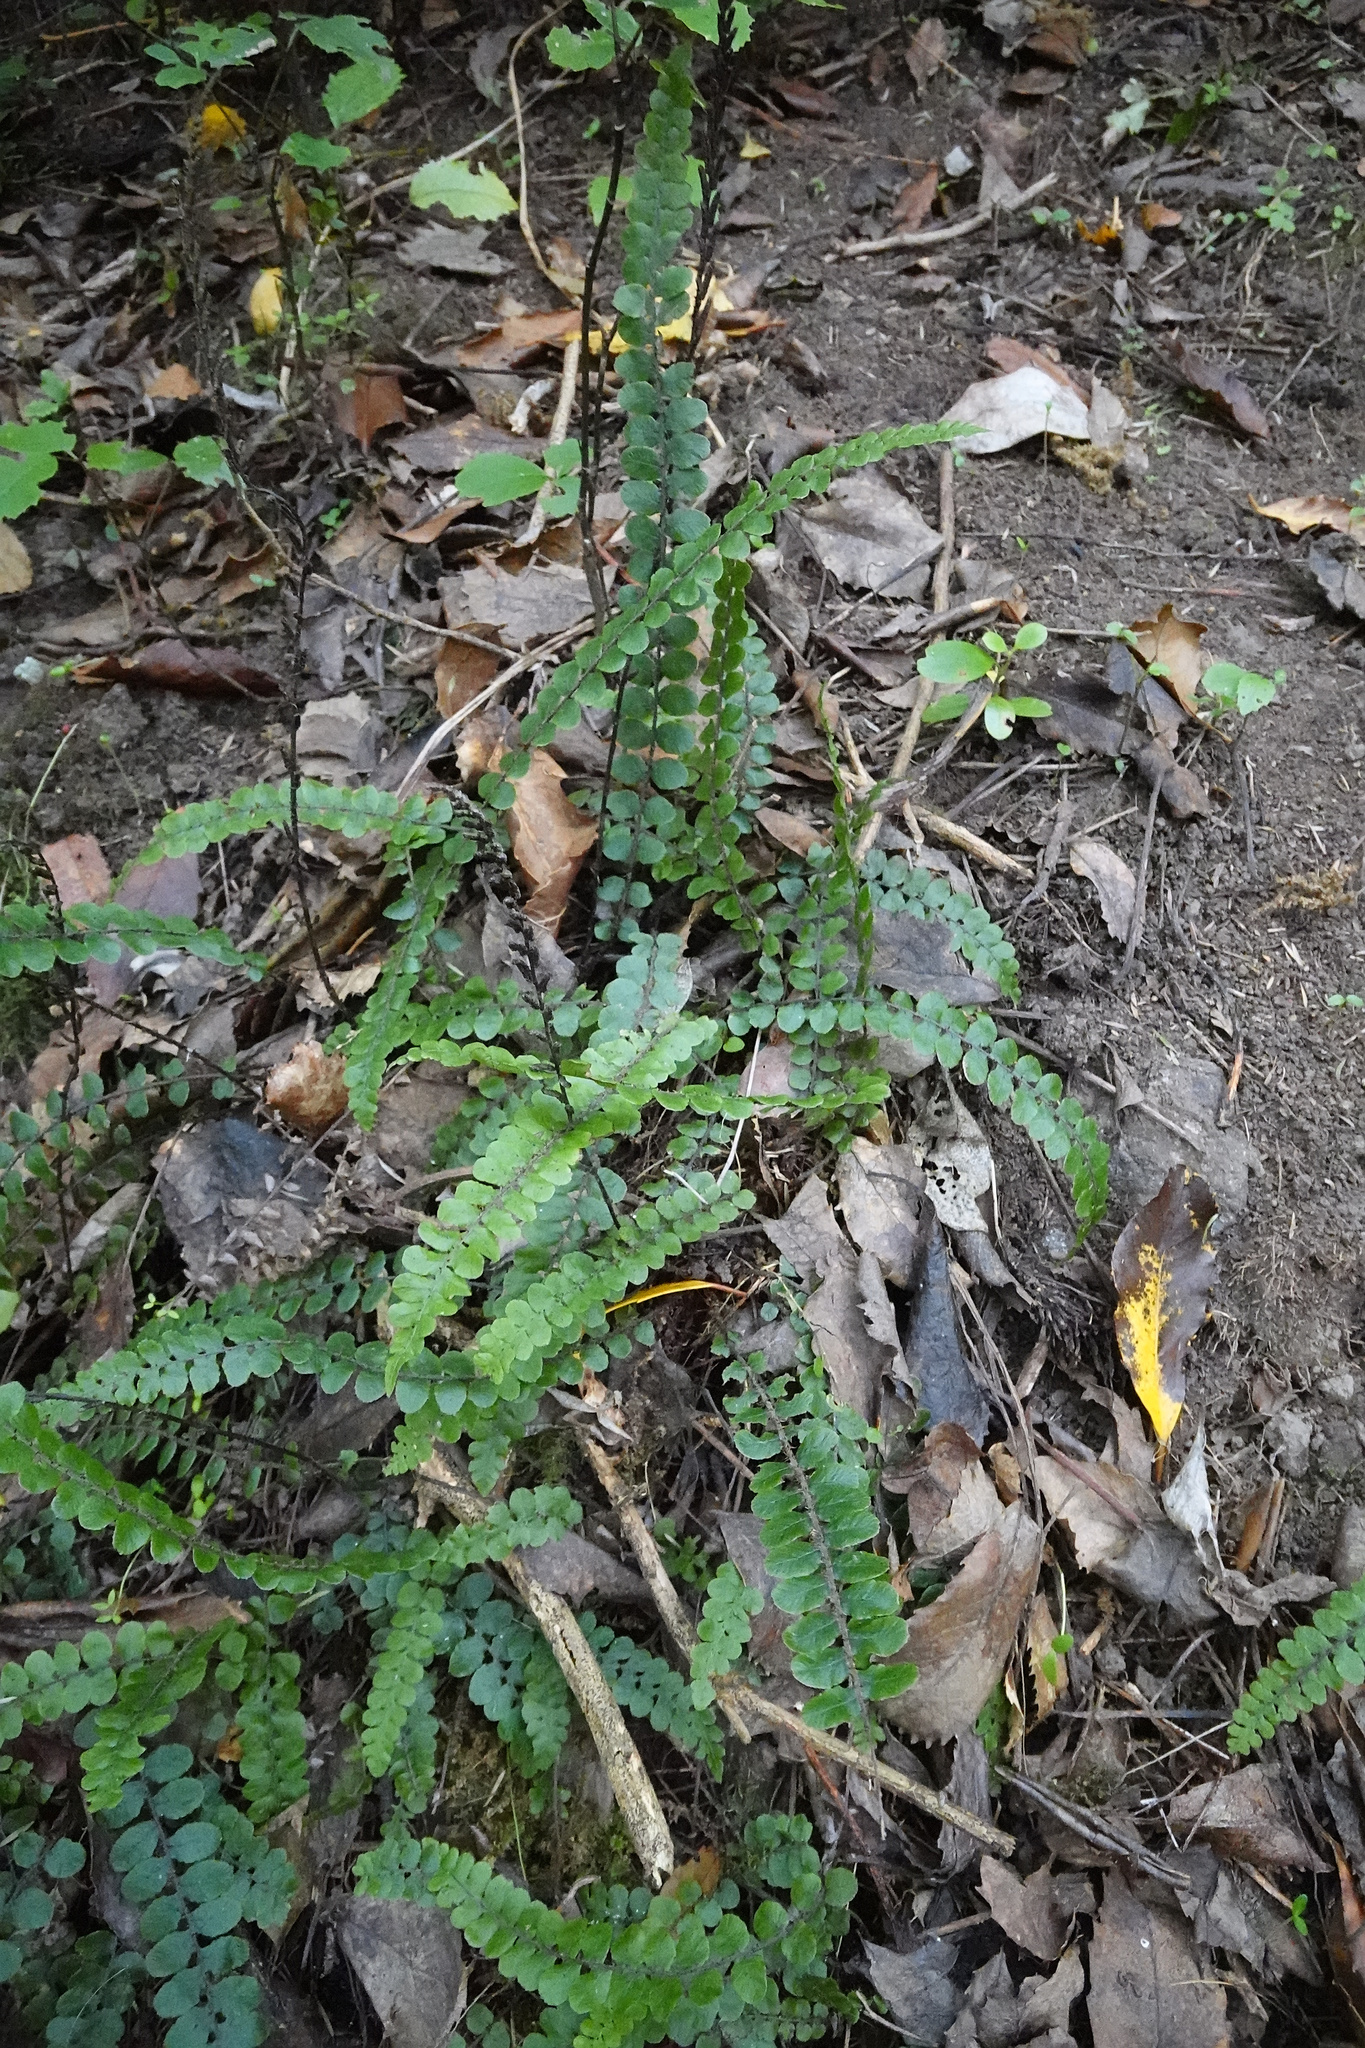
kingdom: Plantae
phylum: Tracheophyta
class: Polypodiopsida
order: Polypodiales
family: Blechnaceae
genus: Cranfillia
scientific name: Cranfillia fluviatilis
